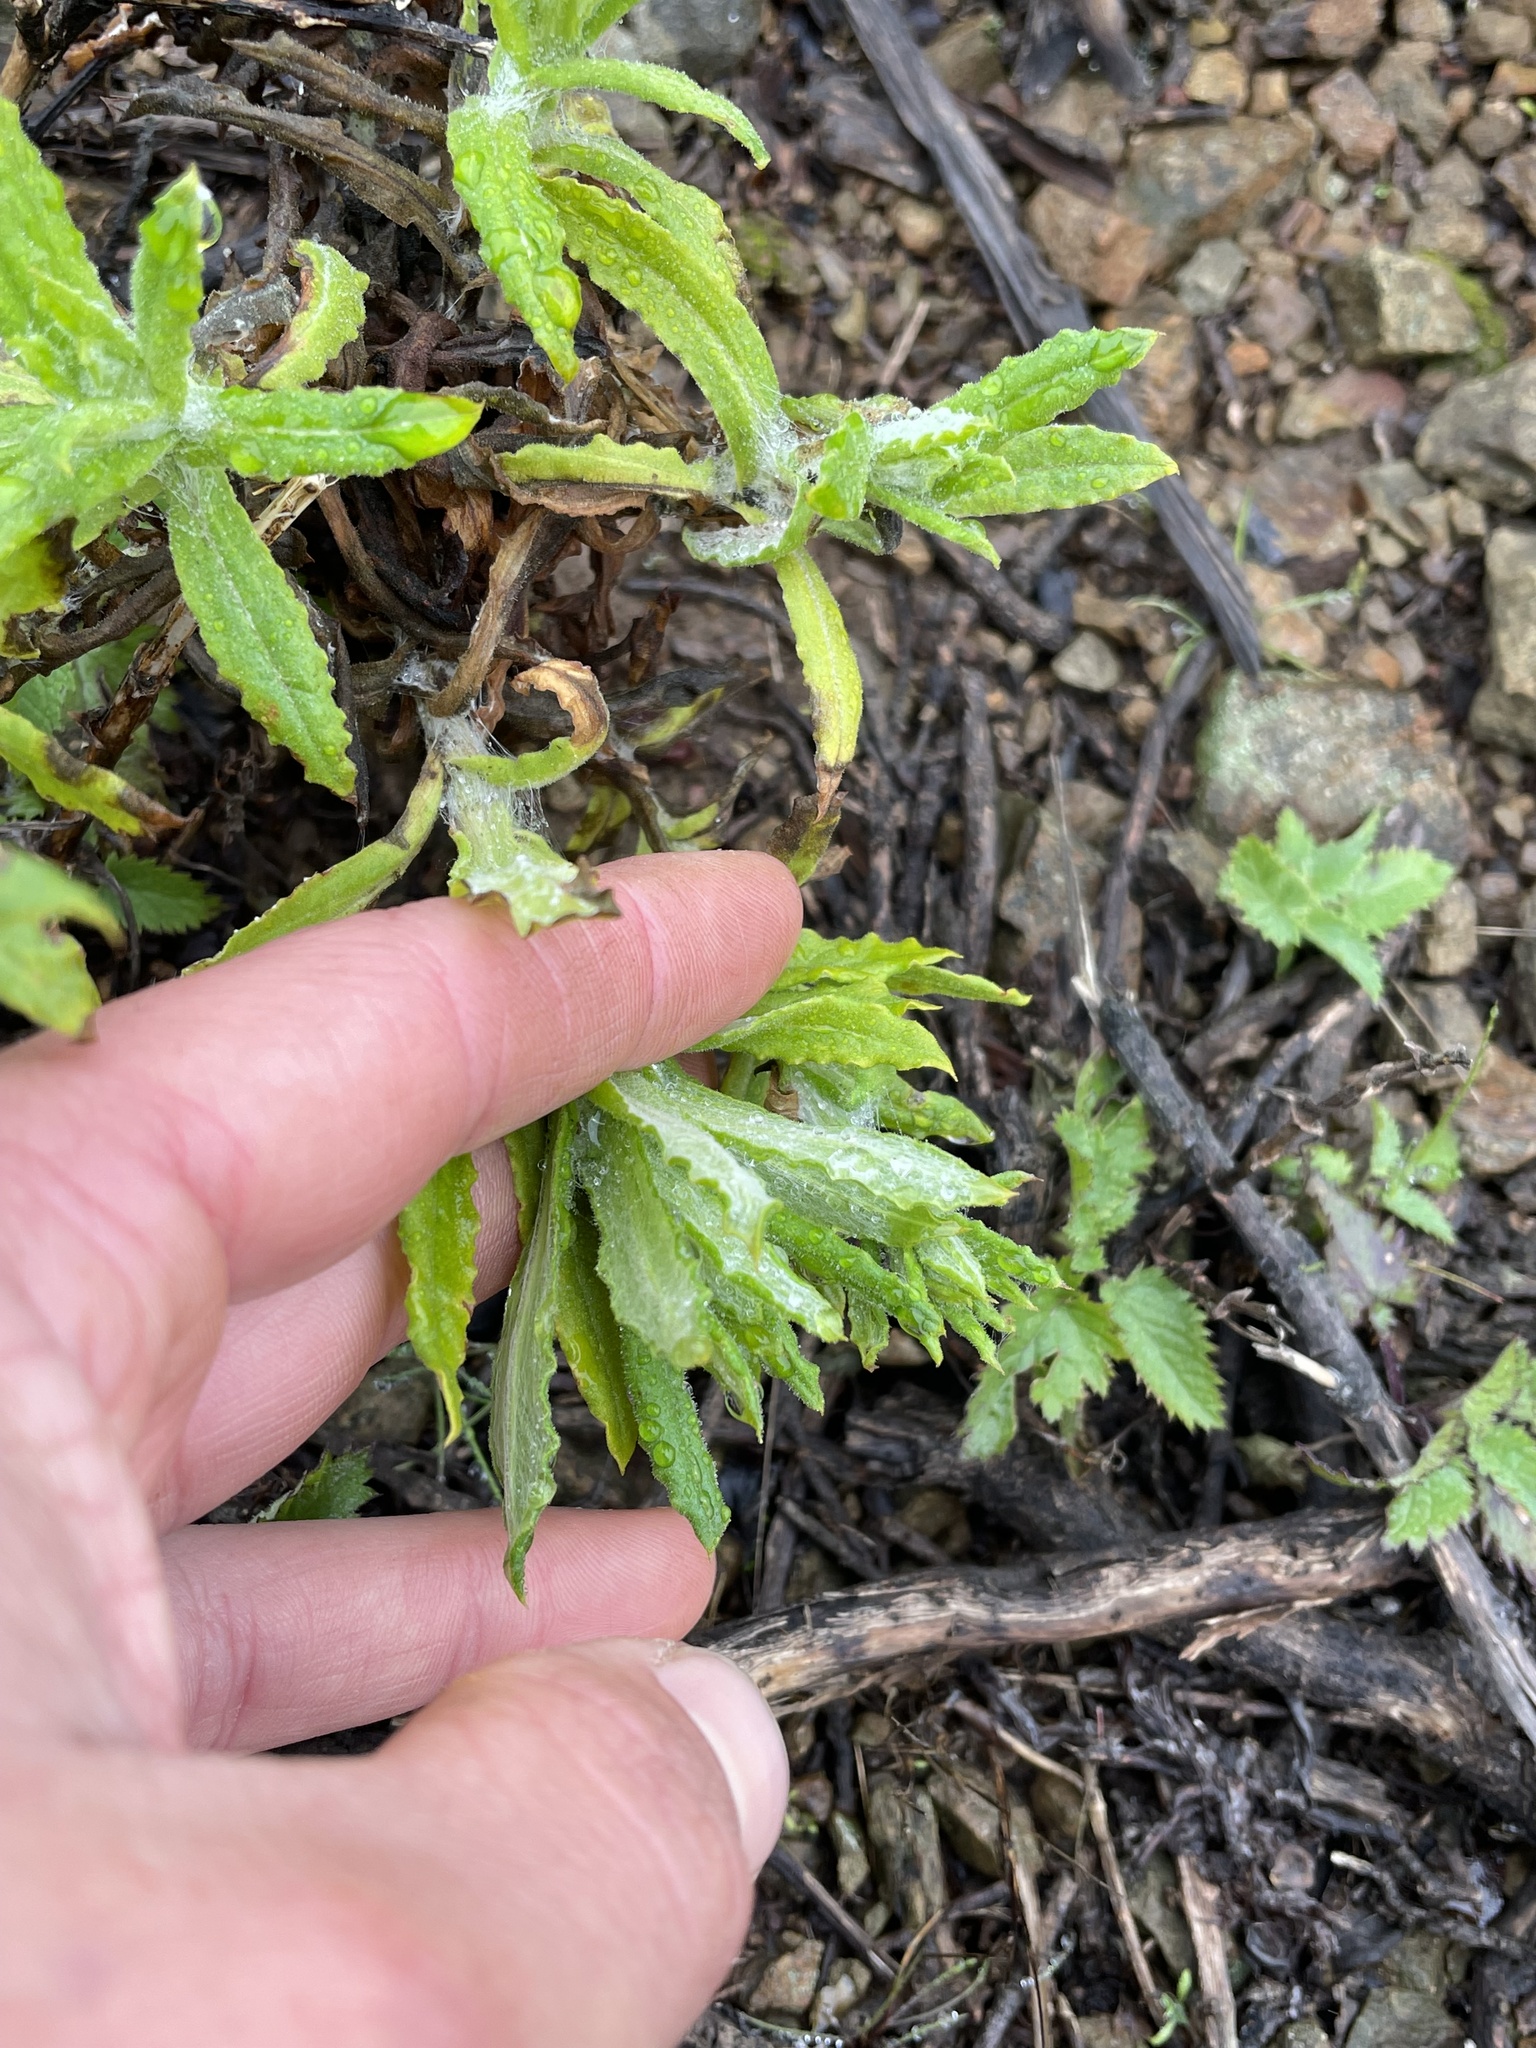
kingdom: Plantae
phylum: Tracheophyta
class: Magnoliopsida
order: Asterales
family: Asteraceae
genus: Pseudognaphalium
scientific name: Pseudognaphalium californicum
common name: California rabbit-tobacco
